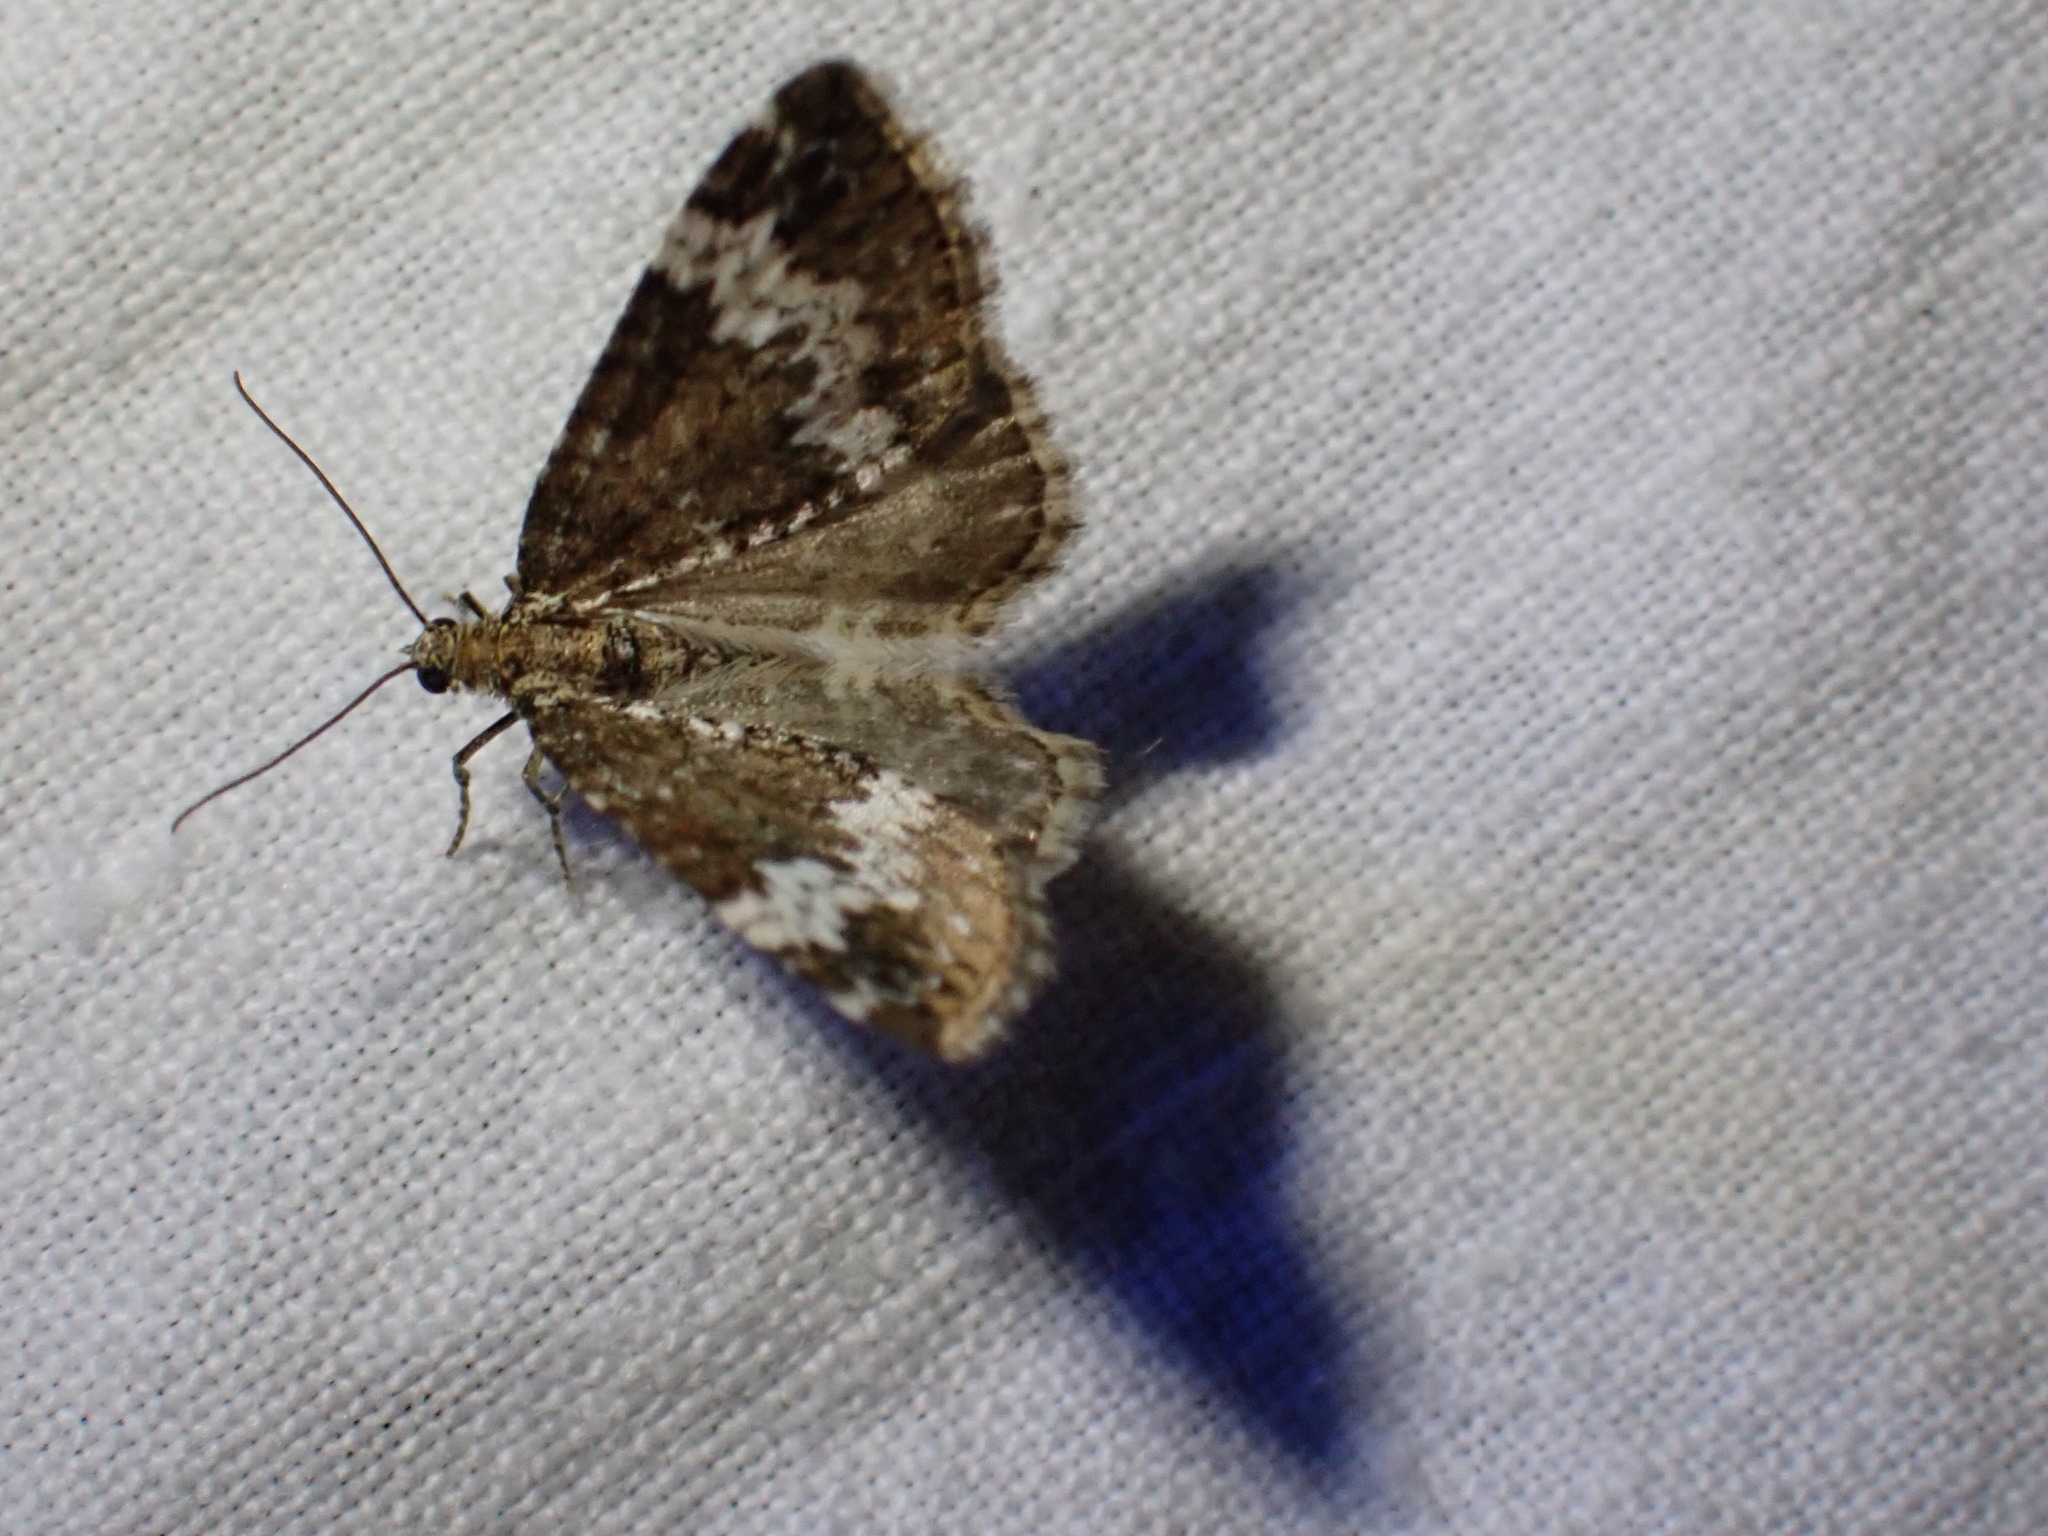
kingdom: Animalia
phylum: Arthropoda
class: Insecta
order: Lepidoptera
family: Geometridae
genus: Perizoma
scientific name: Perizoma alchemillata
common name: Small rivulet
